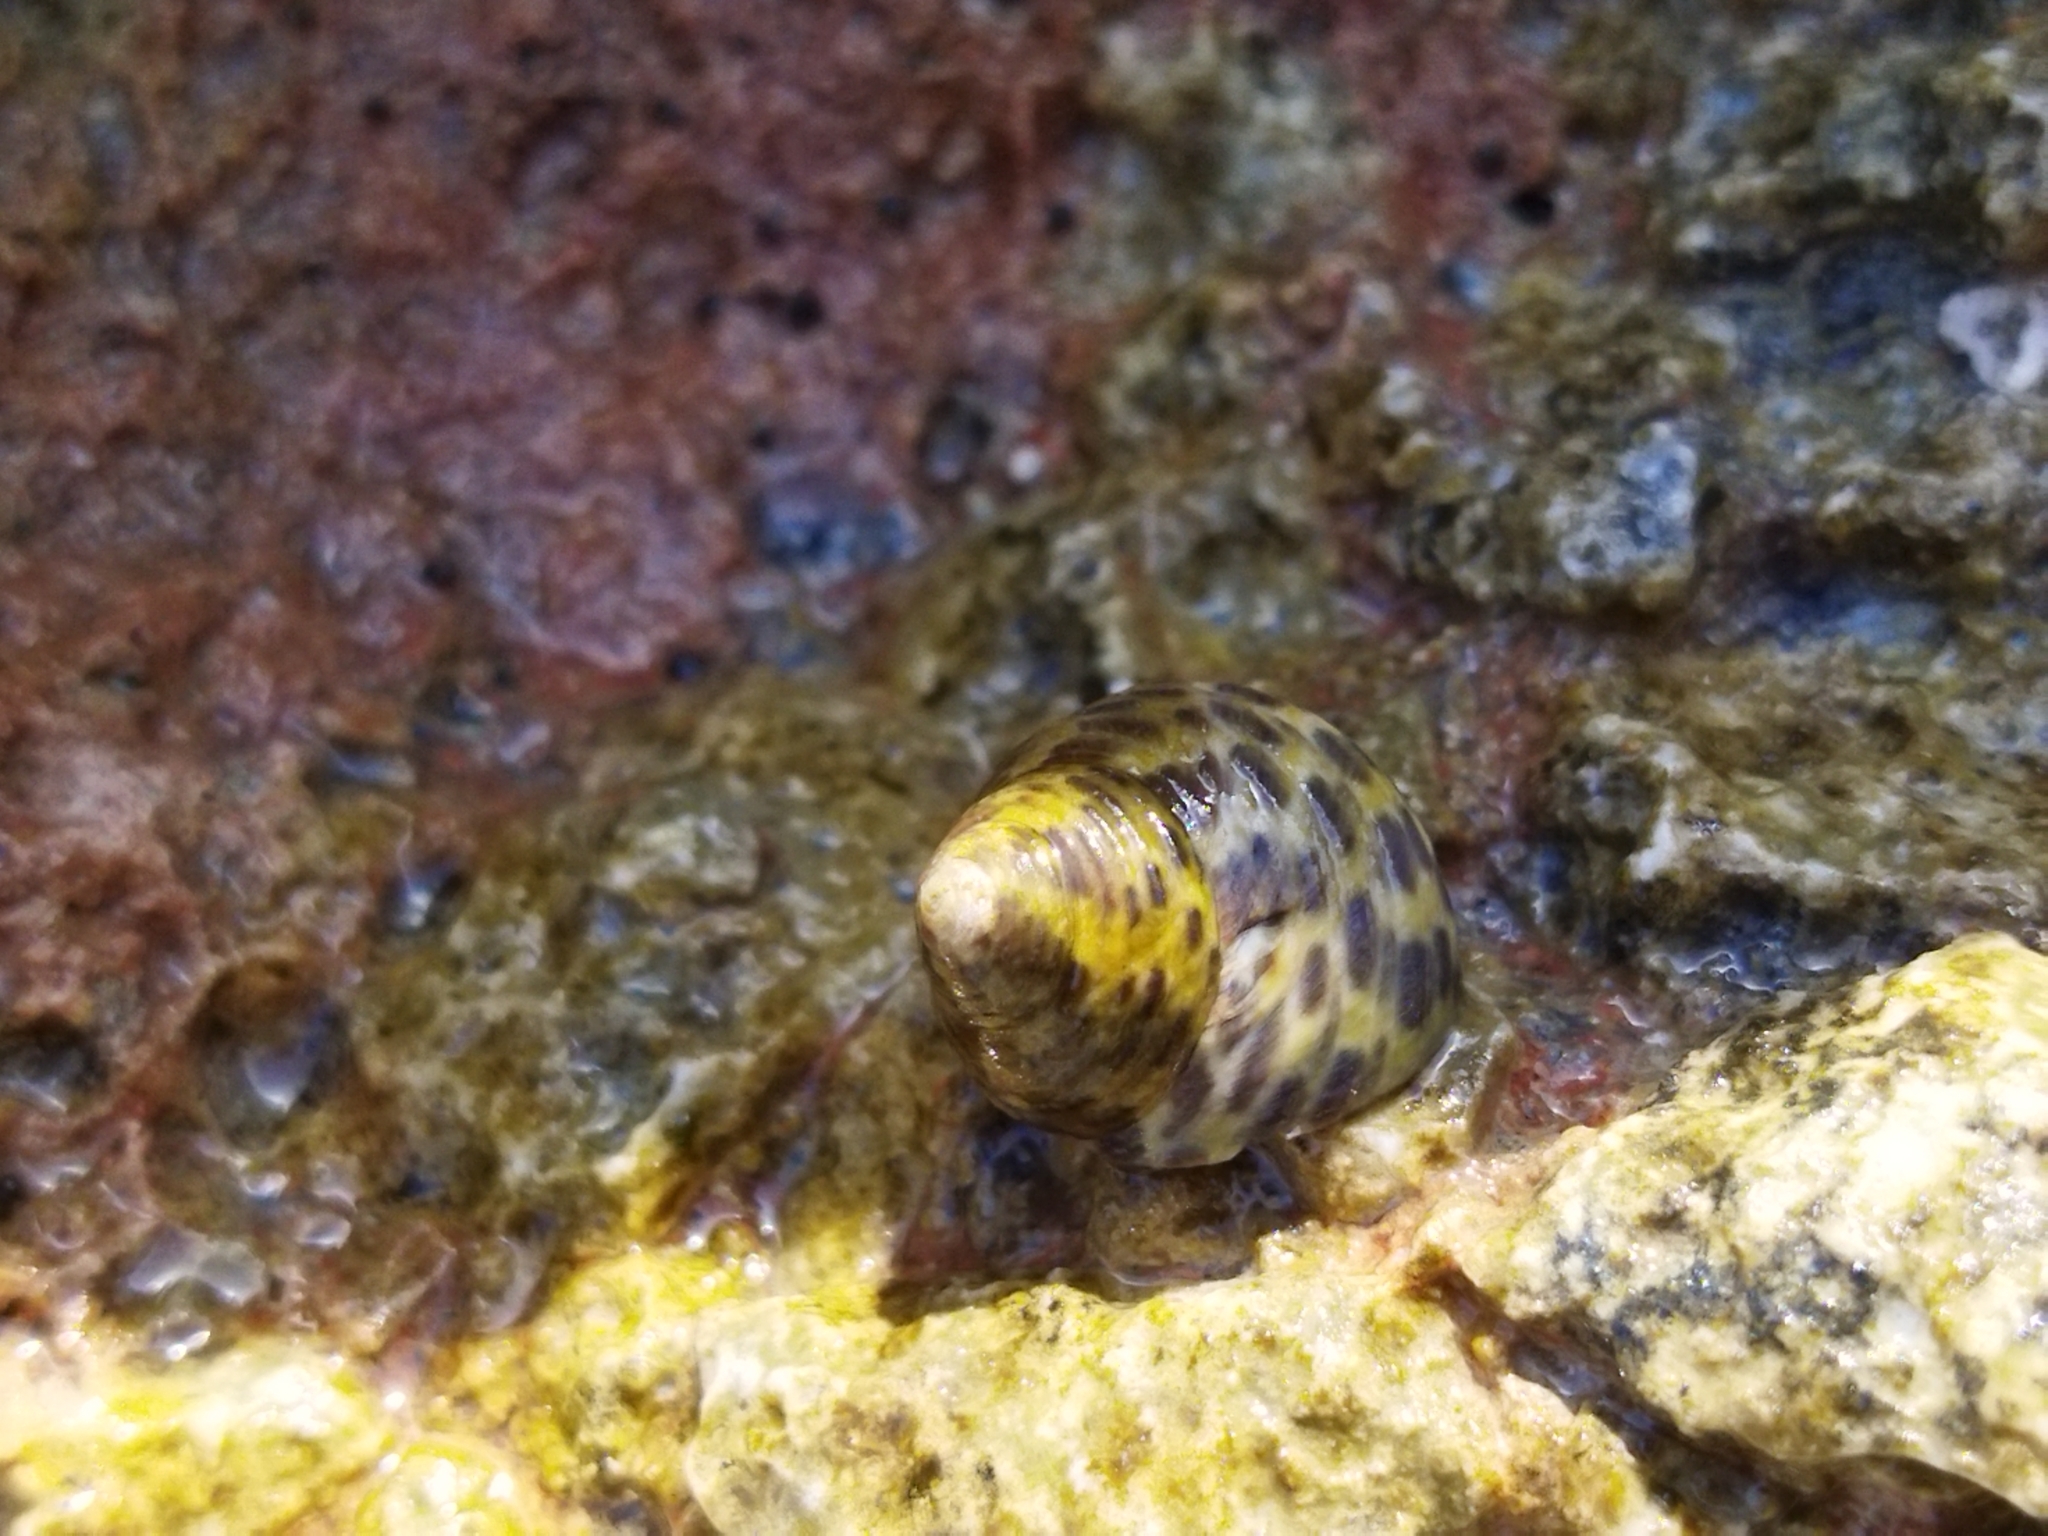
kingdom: Animalia
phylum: Mollusca
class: Gastropoda
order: Trochida
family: Trochidae
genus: Phorcus
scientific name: Phorcus turbinatus
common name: Turbinate monodont
